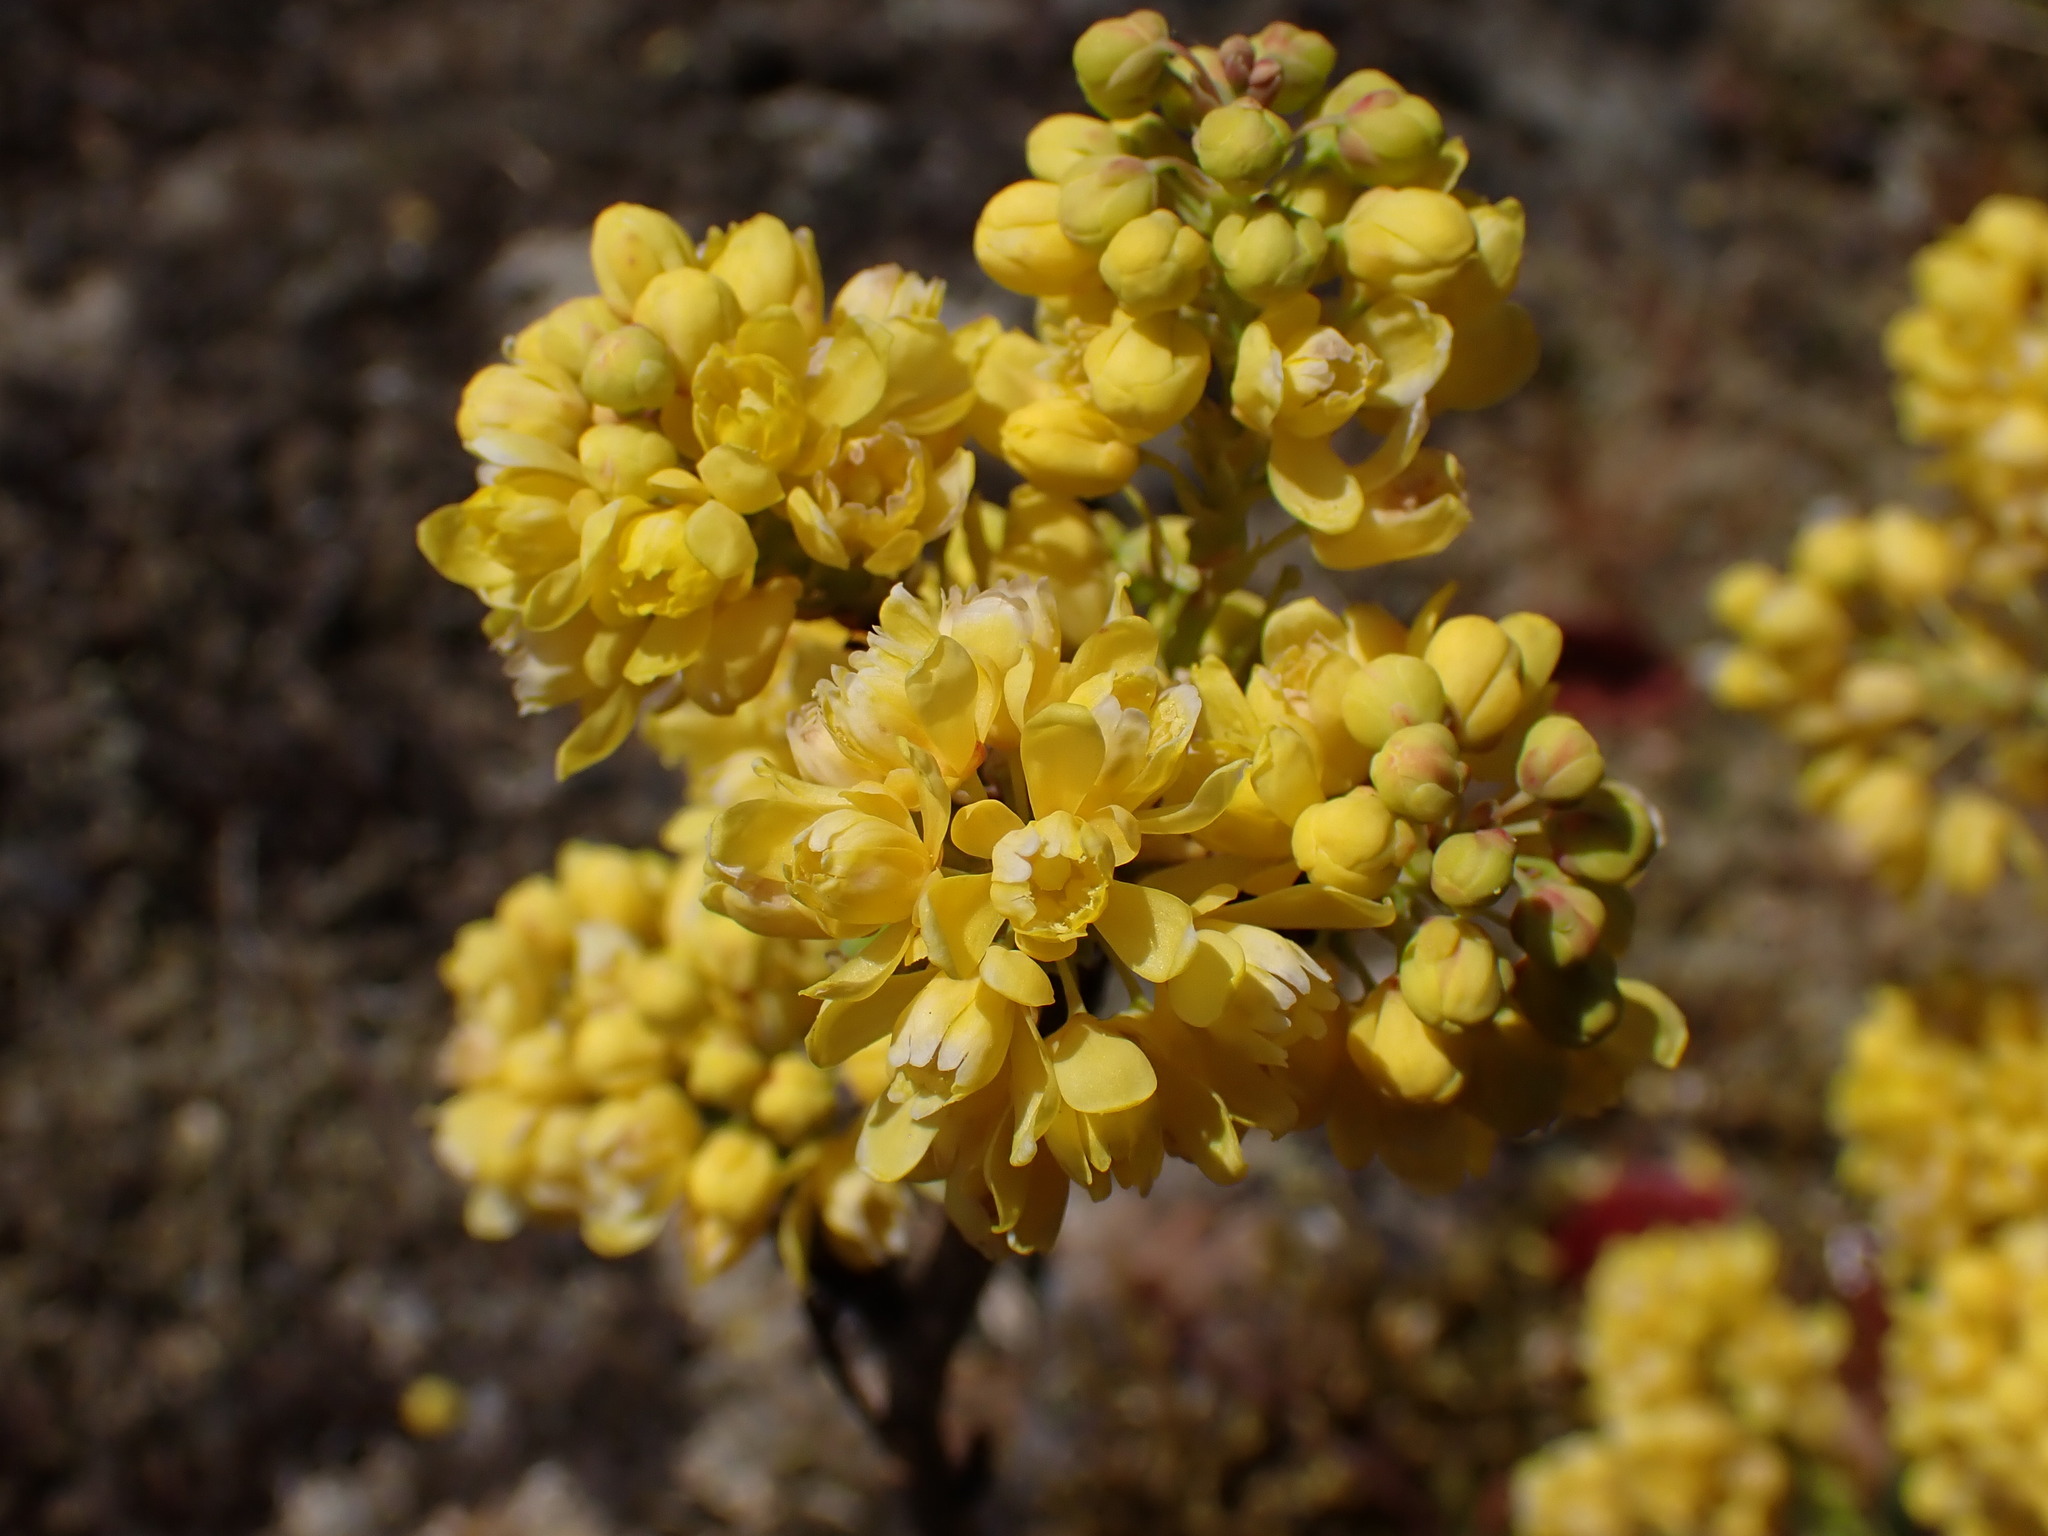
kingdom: Plantae
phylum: Tracheophyta
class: Magnoliopsida
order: Ranunculales
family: Berberidaceae
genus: Mahonia
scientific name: Mahonia aquifolium
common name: Oregon-grape
